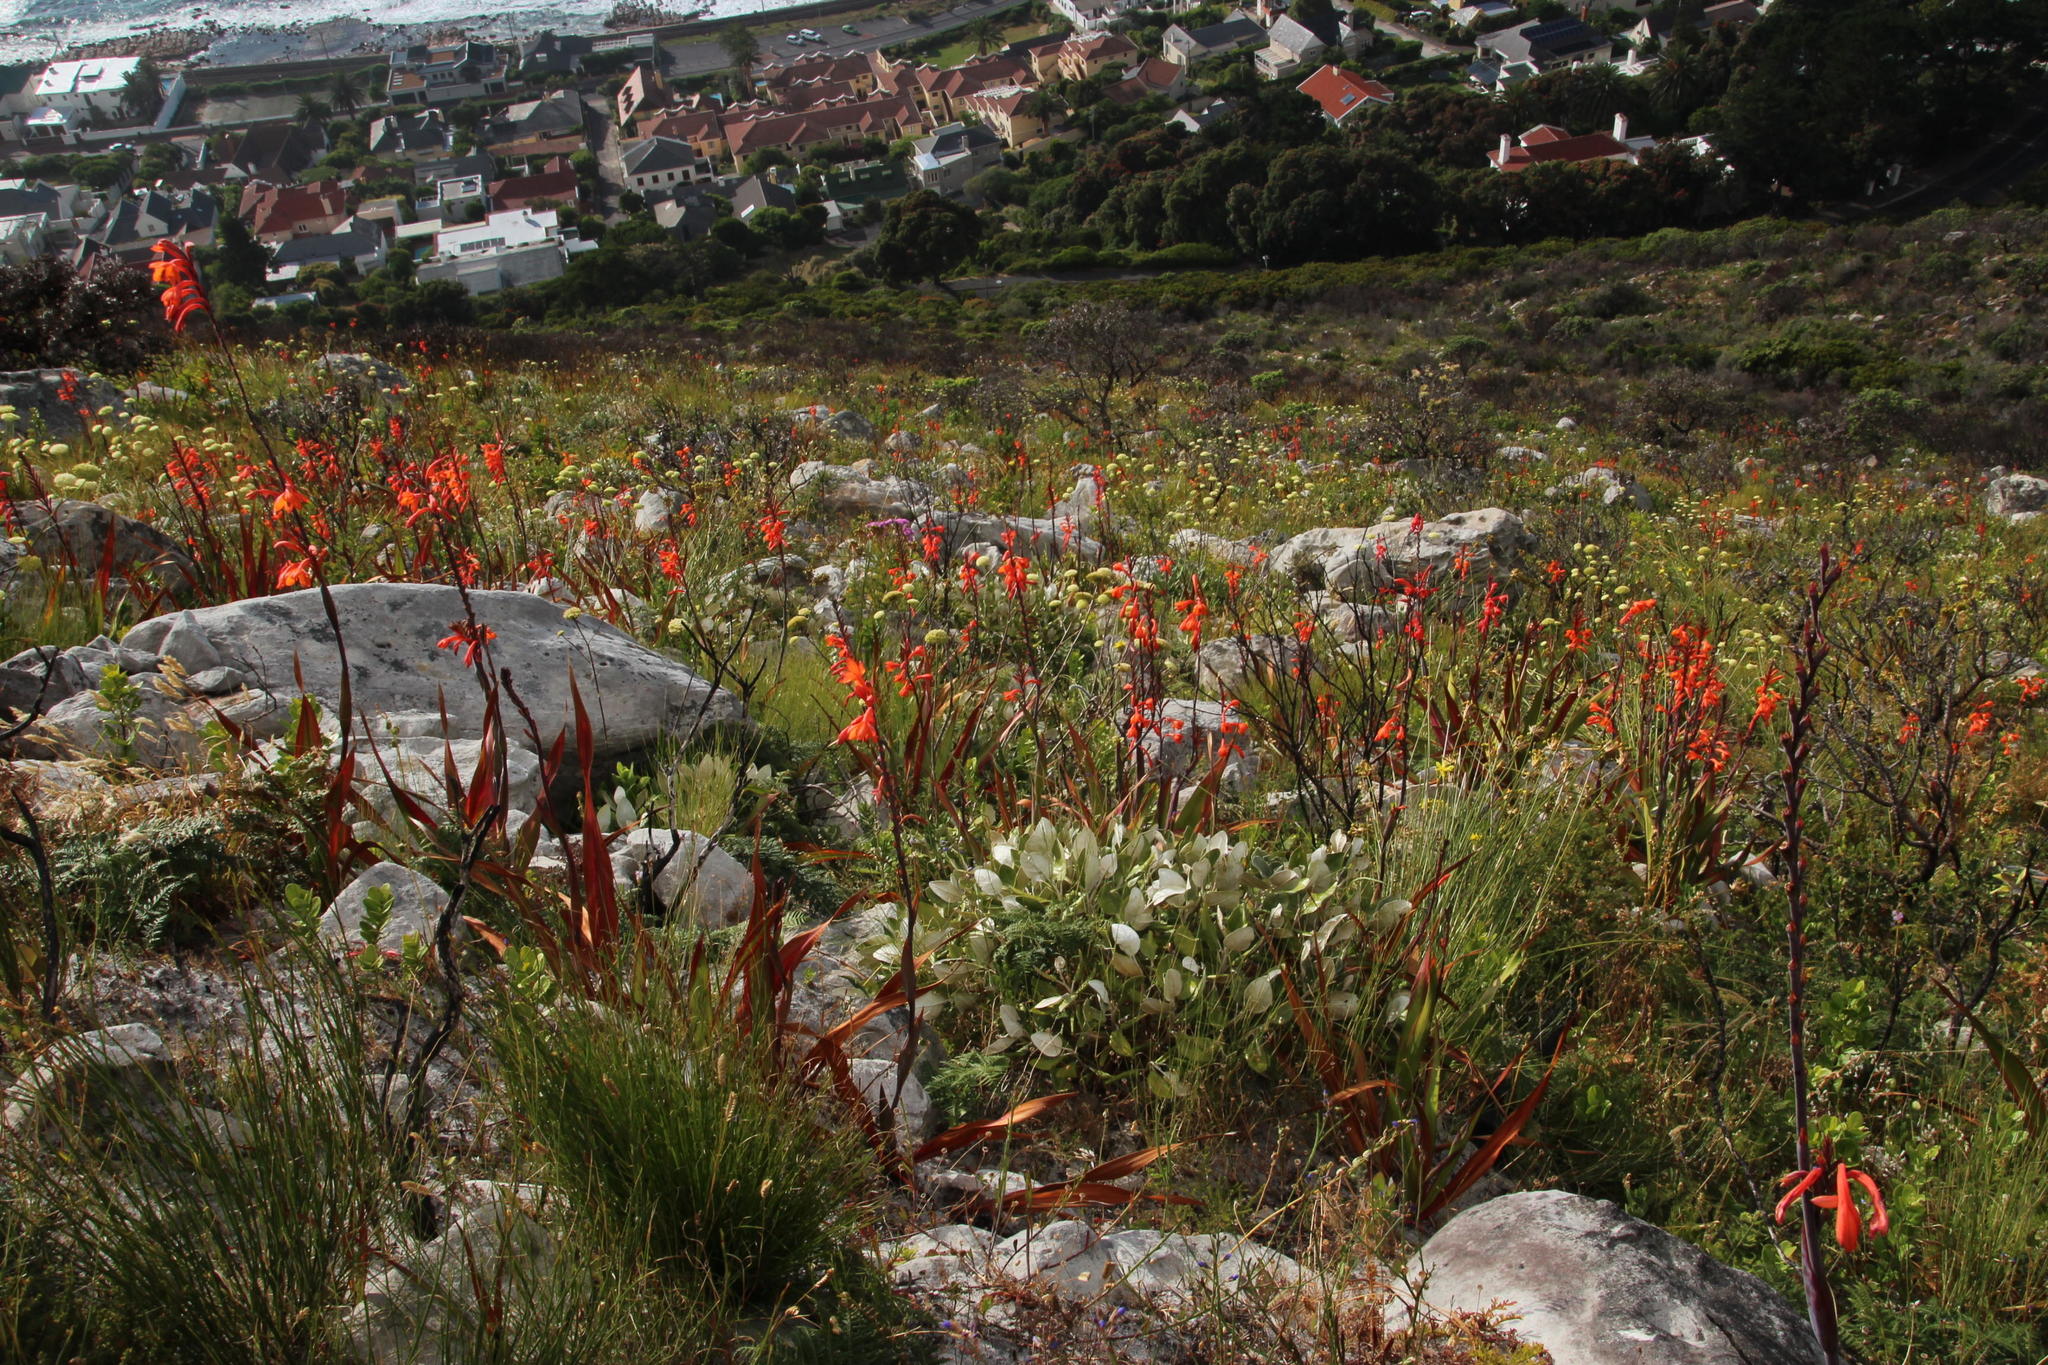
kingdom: Plantae
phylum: Tracheophyta
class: Liliopsida
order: Asparagales
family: Iridaceae
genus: Watsonia
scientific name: Watsonia tabularis
